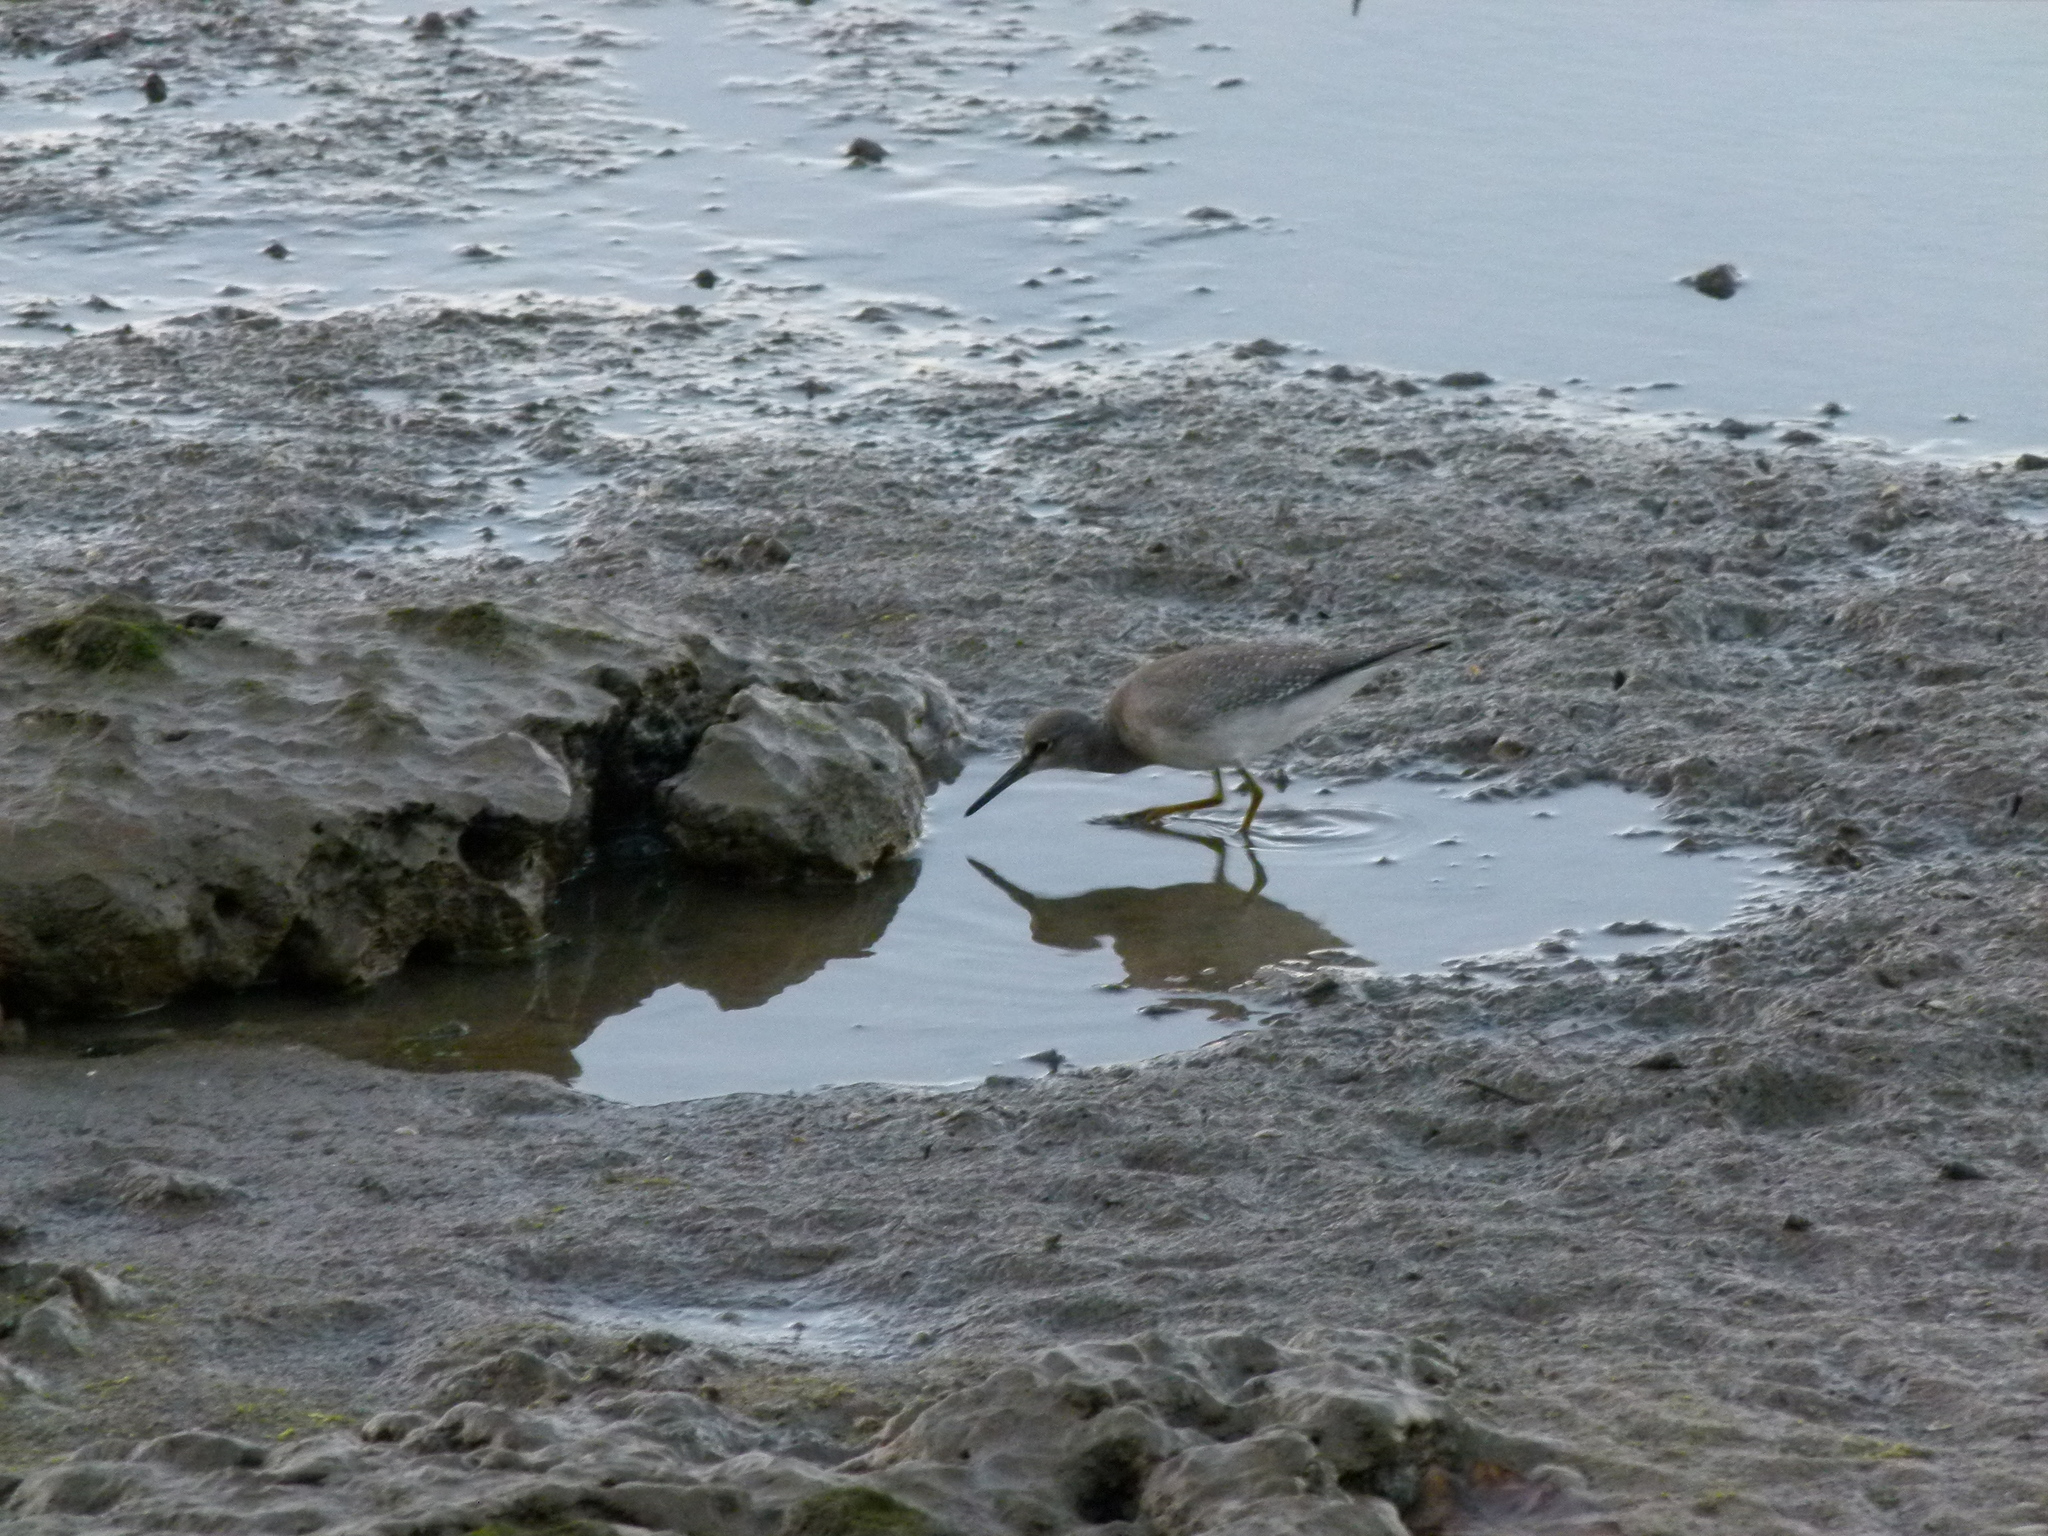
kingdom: Animalia
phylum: Chordata
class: Aves
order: Charadriiformes
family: Scolopacidae
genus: Tringa
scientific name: Tringa brevipes
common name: Grey-tailed tattler
